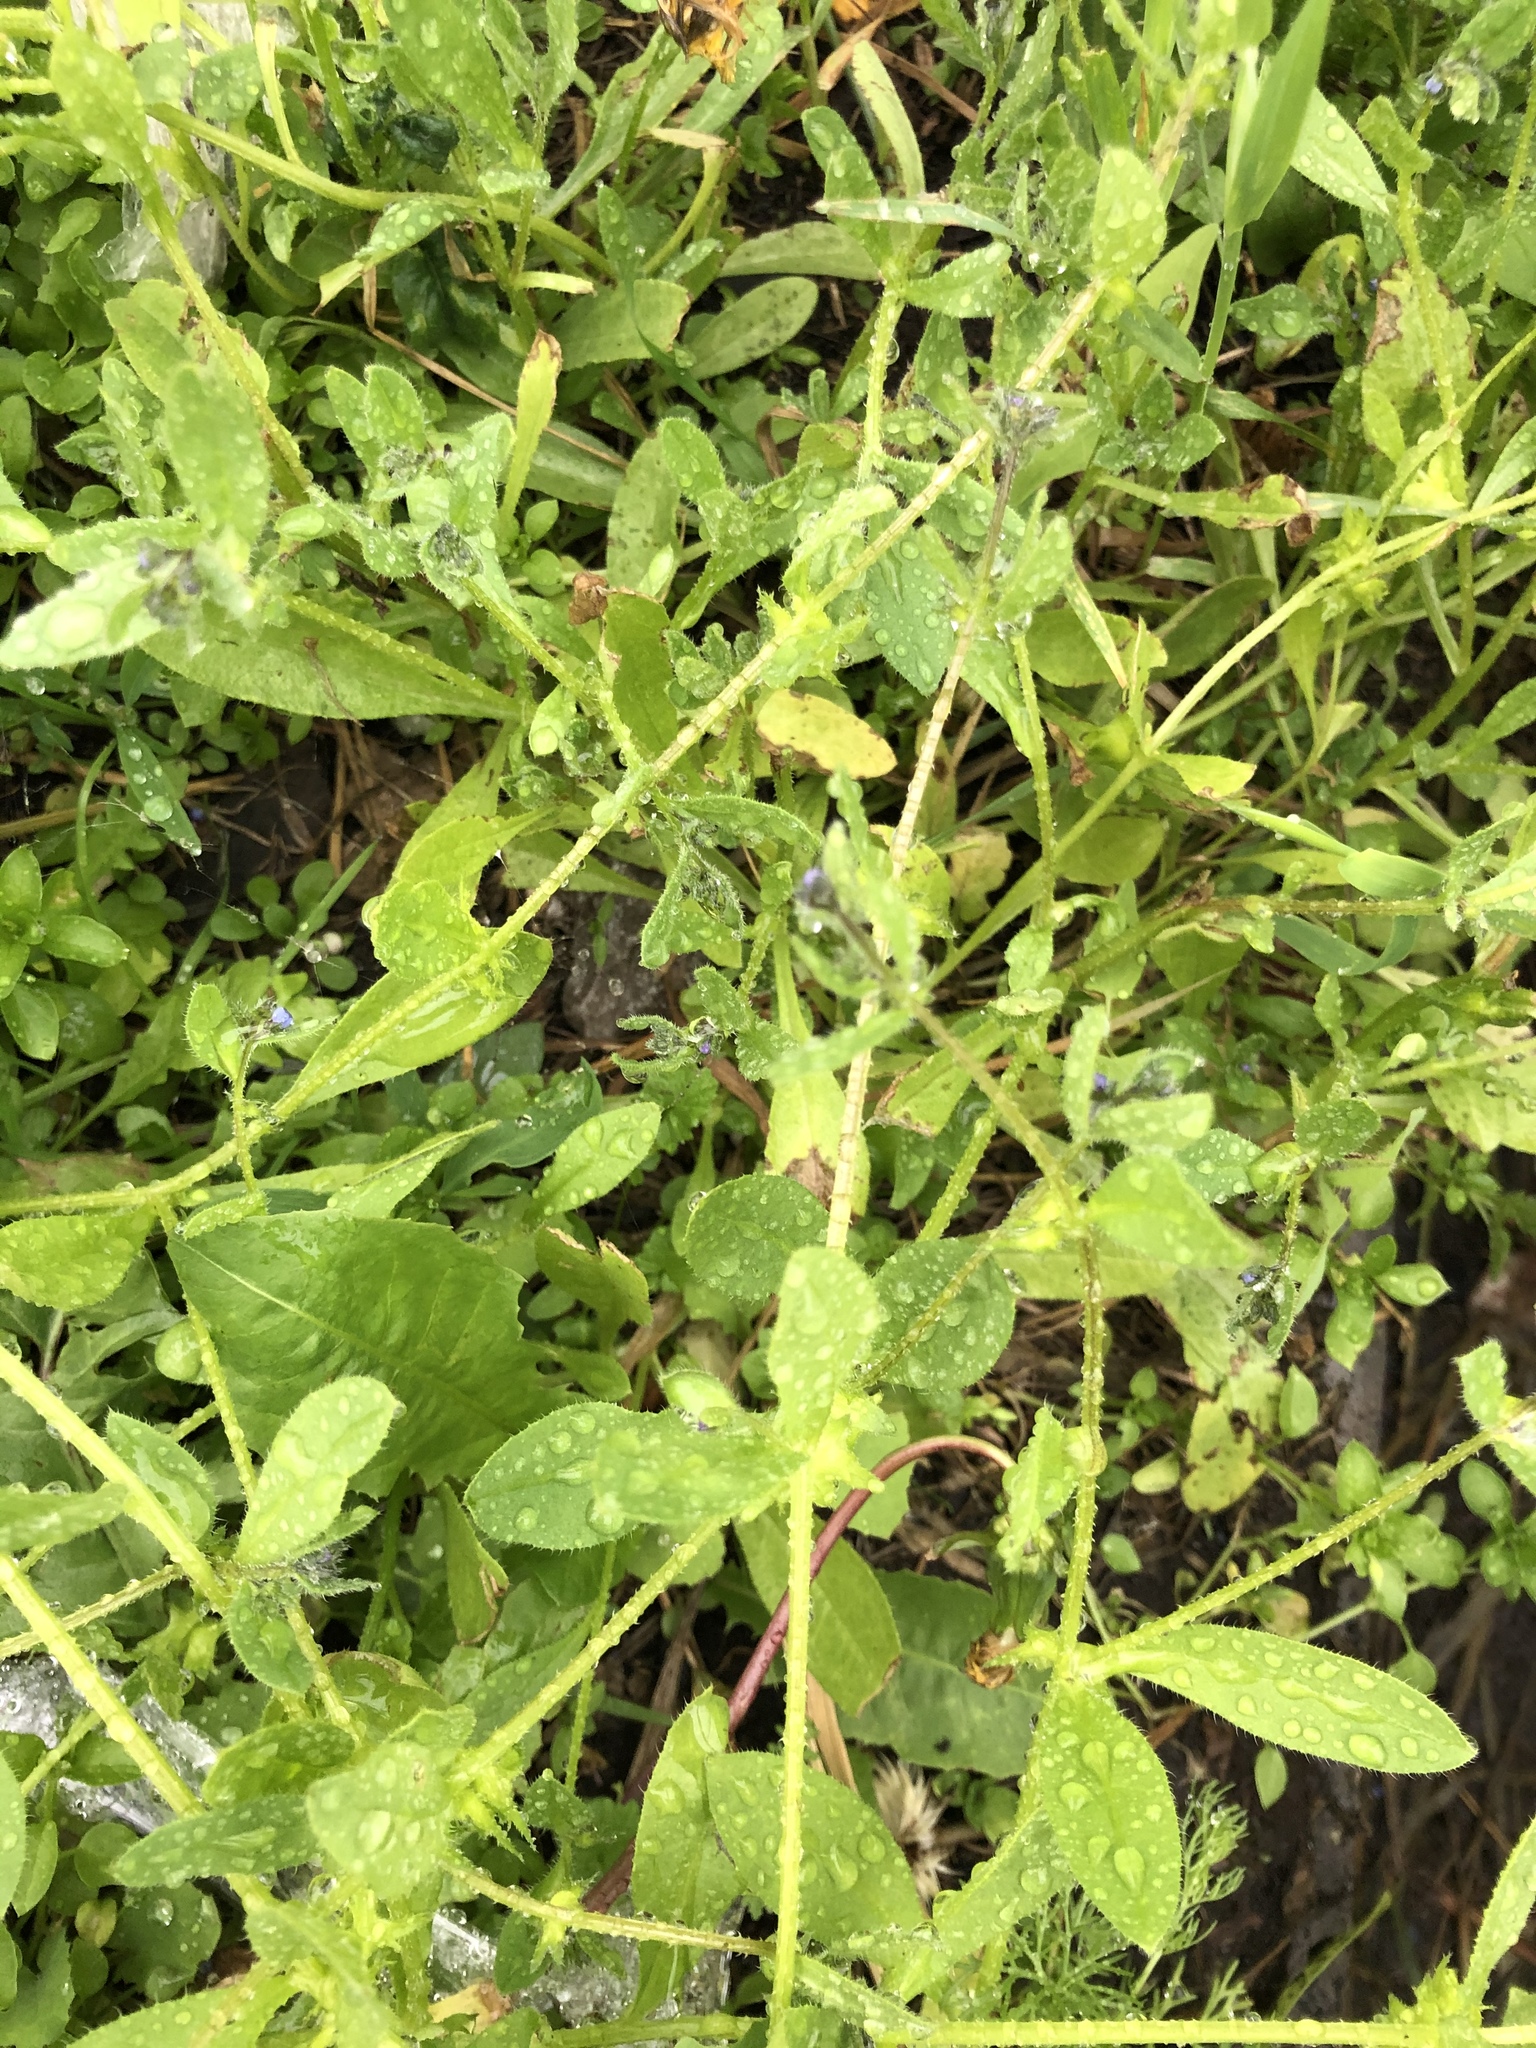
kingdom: Plantae
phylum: Tracheophyta
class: Magnoliopsida
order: Boraginales
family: Boraginaceae
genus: Asperugo
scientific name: Asperugo procumbens
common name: Madwort
